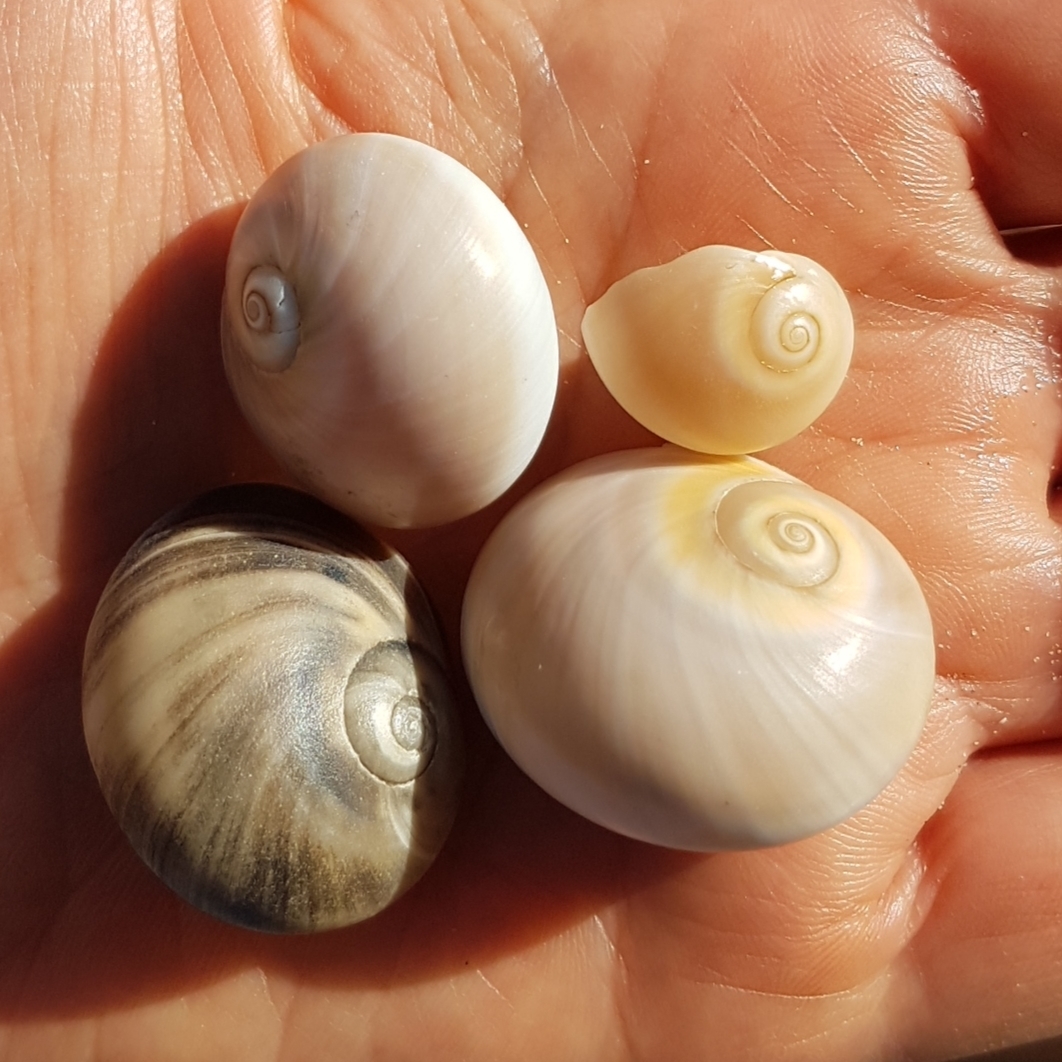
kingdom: Animalia
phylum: Mollusca
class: Gastropoda
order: Littorinimorpha
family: Naticidae
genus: Neverita
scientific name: Neverita josephinia
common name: Josephine's moonsnail
